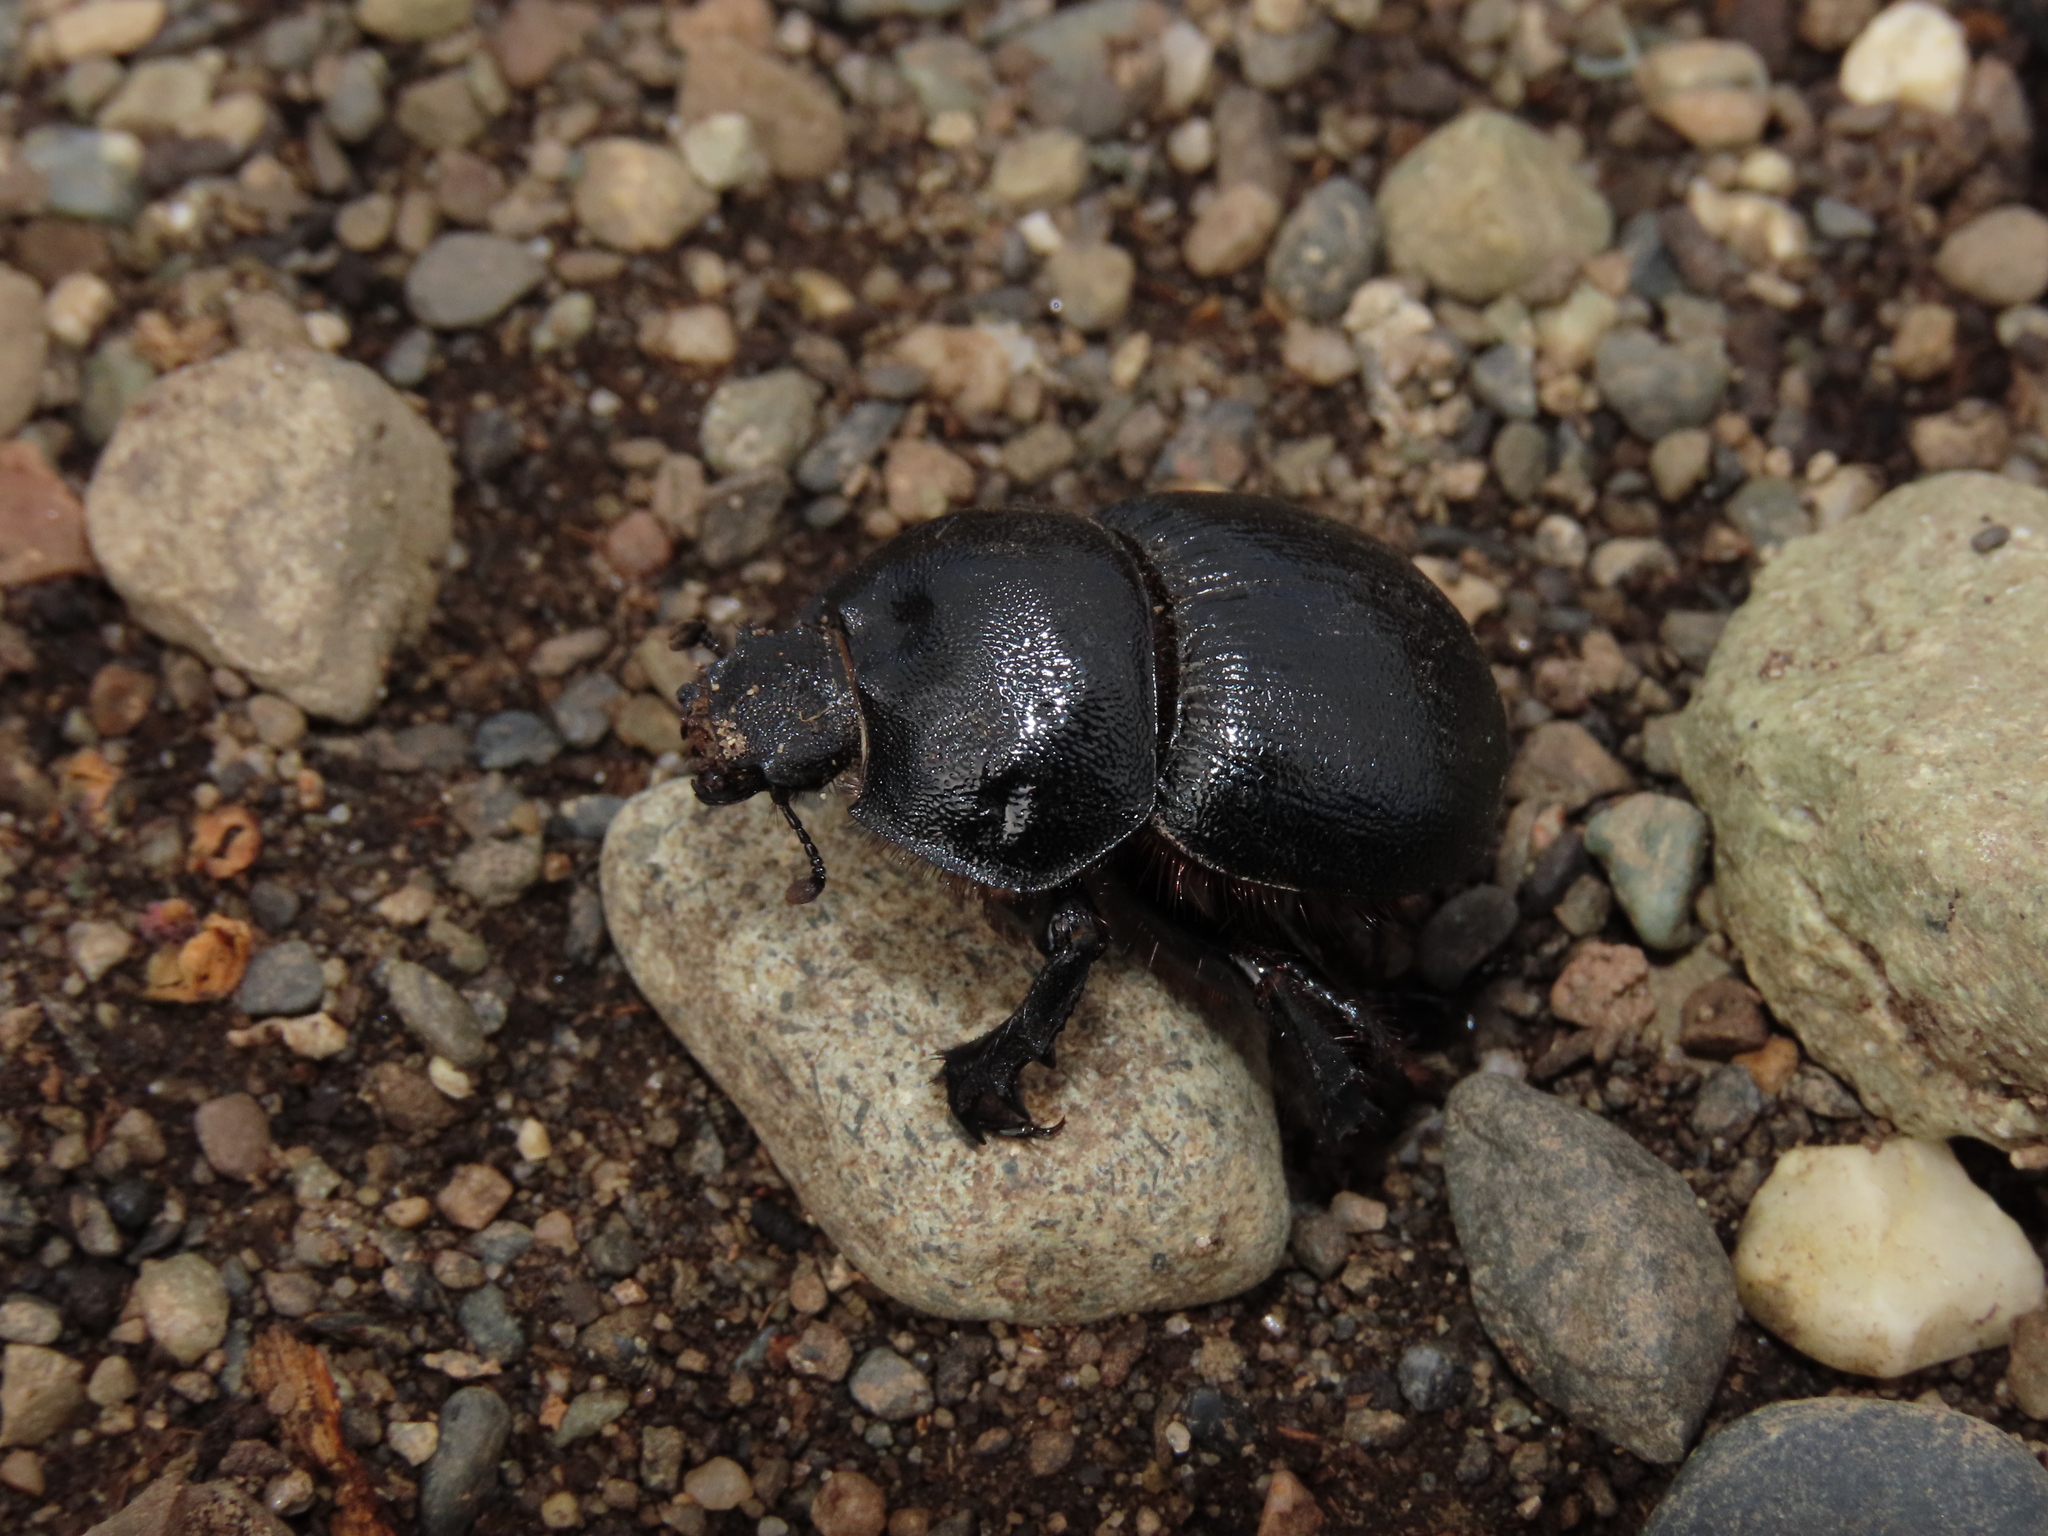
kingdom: Animalia
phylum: Arthropoda
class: Insecta
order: Coleoptera
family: Geotrupidae
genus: Taurocerastes
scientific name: Taurocerastes patagonicus
